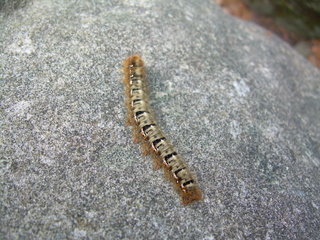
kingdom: Animalia
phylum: Arthropoda
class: Insecta
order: Lepidoptera
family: Lasiocampidae
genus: Lasiocampa
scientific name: Lasiocampa quercus
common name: Oak eggar
